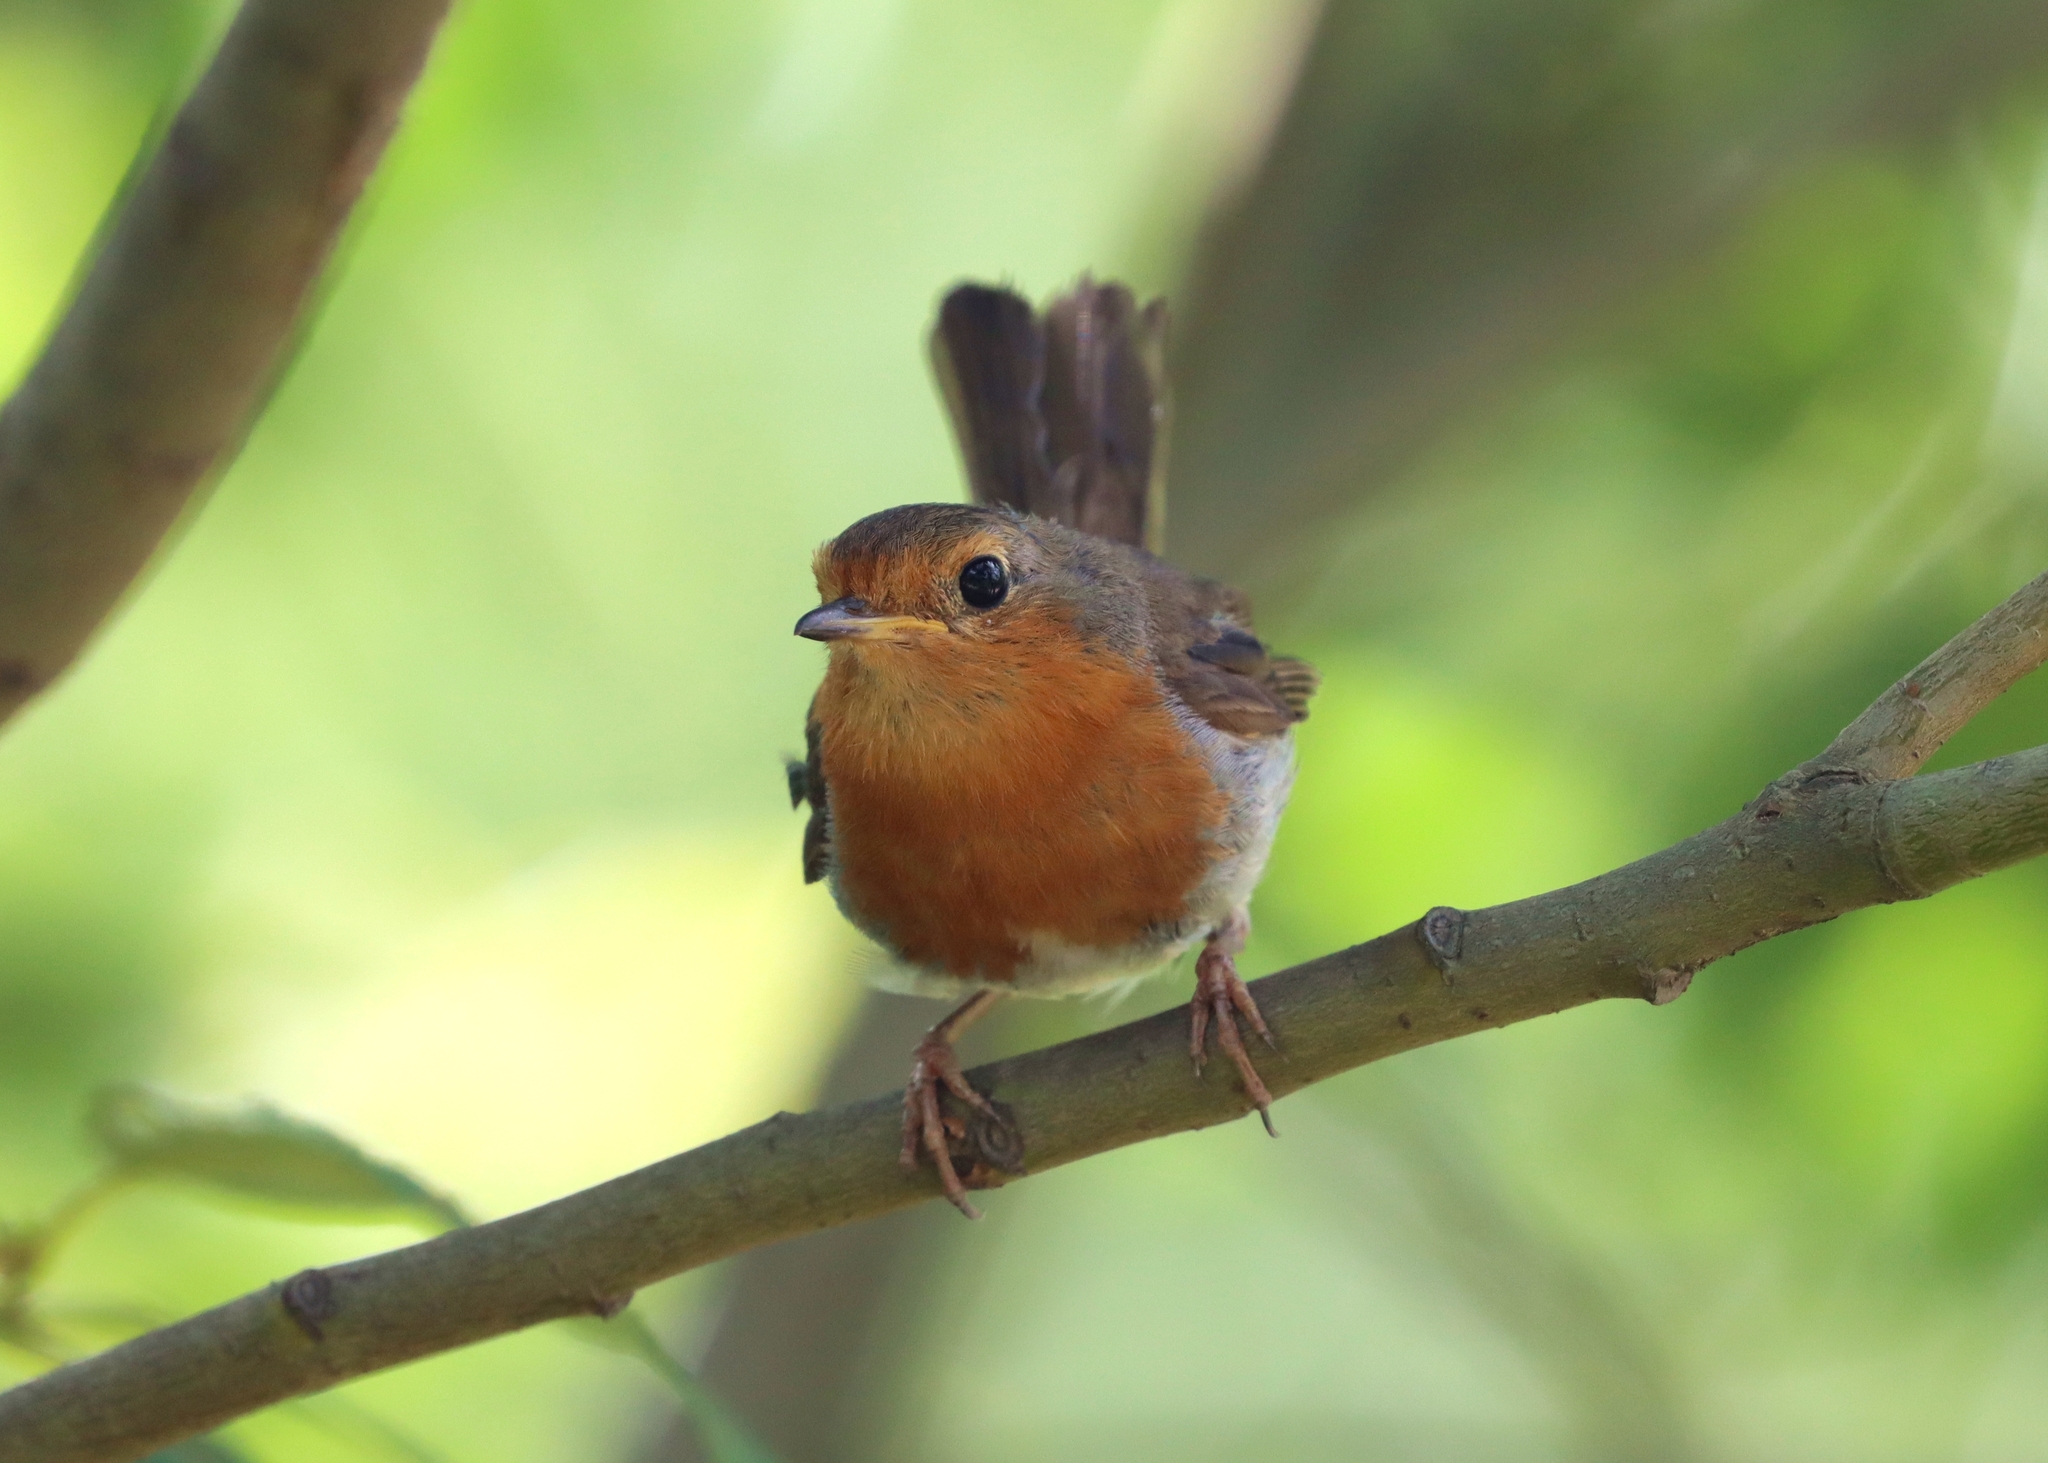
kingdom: Animalia
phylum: Chordata
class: Aves
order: Passeriformes
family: Muscicapidae
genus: Erithacus
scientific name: Erithacus rubecula
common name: European robin
